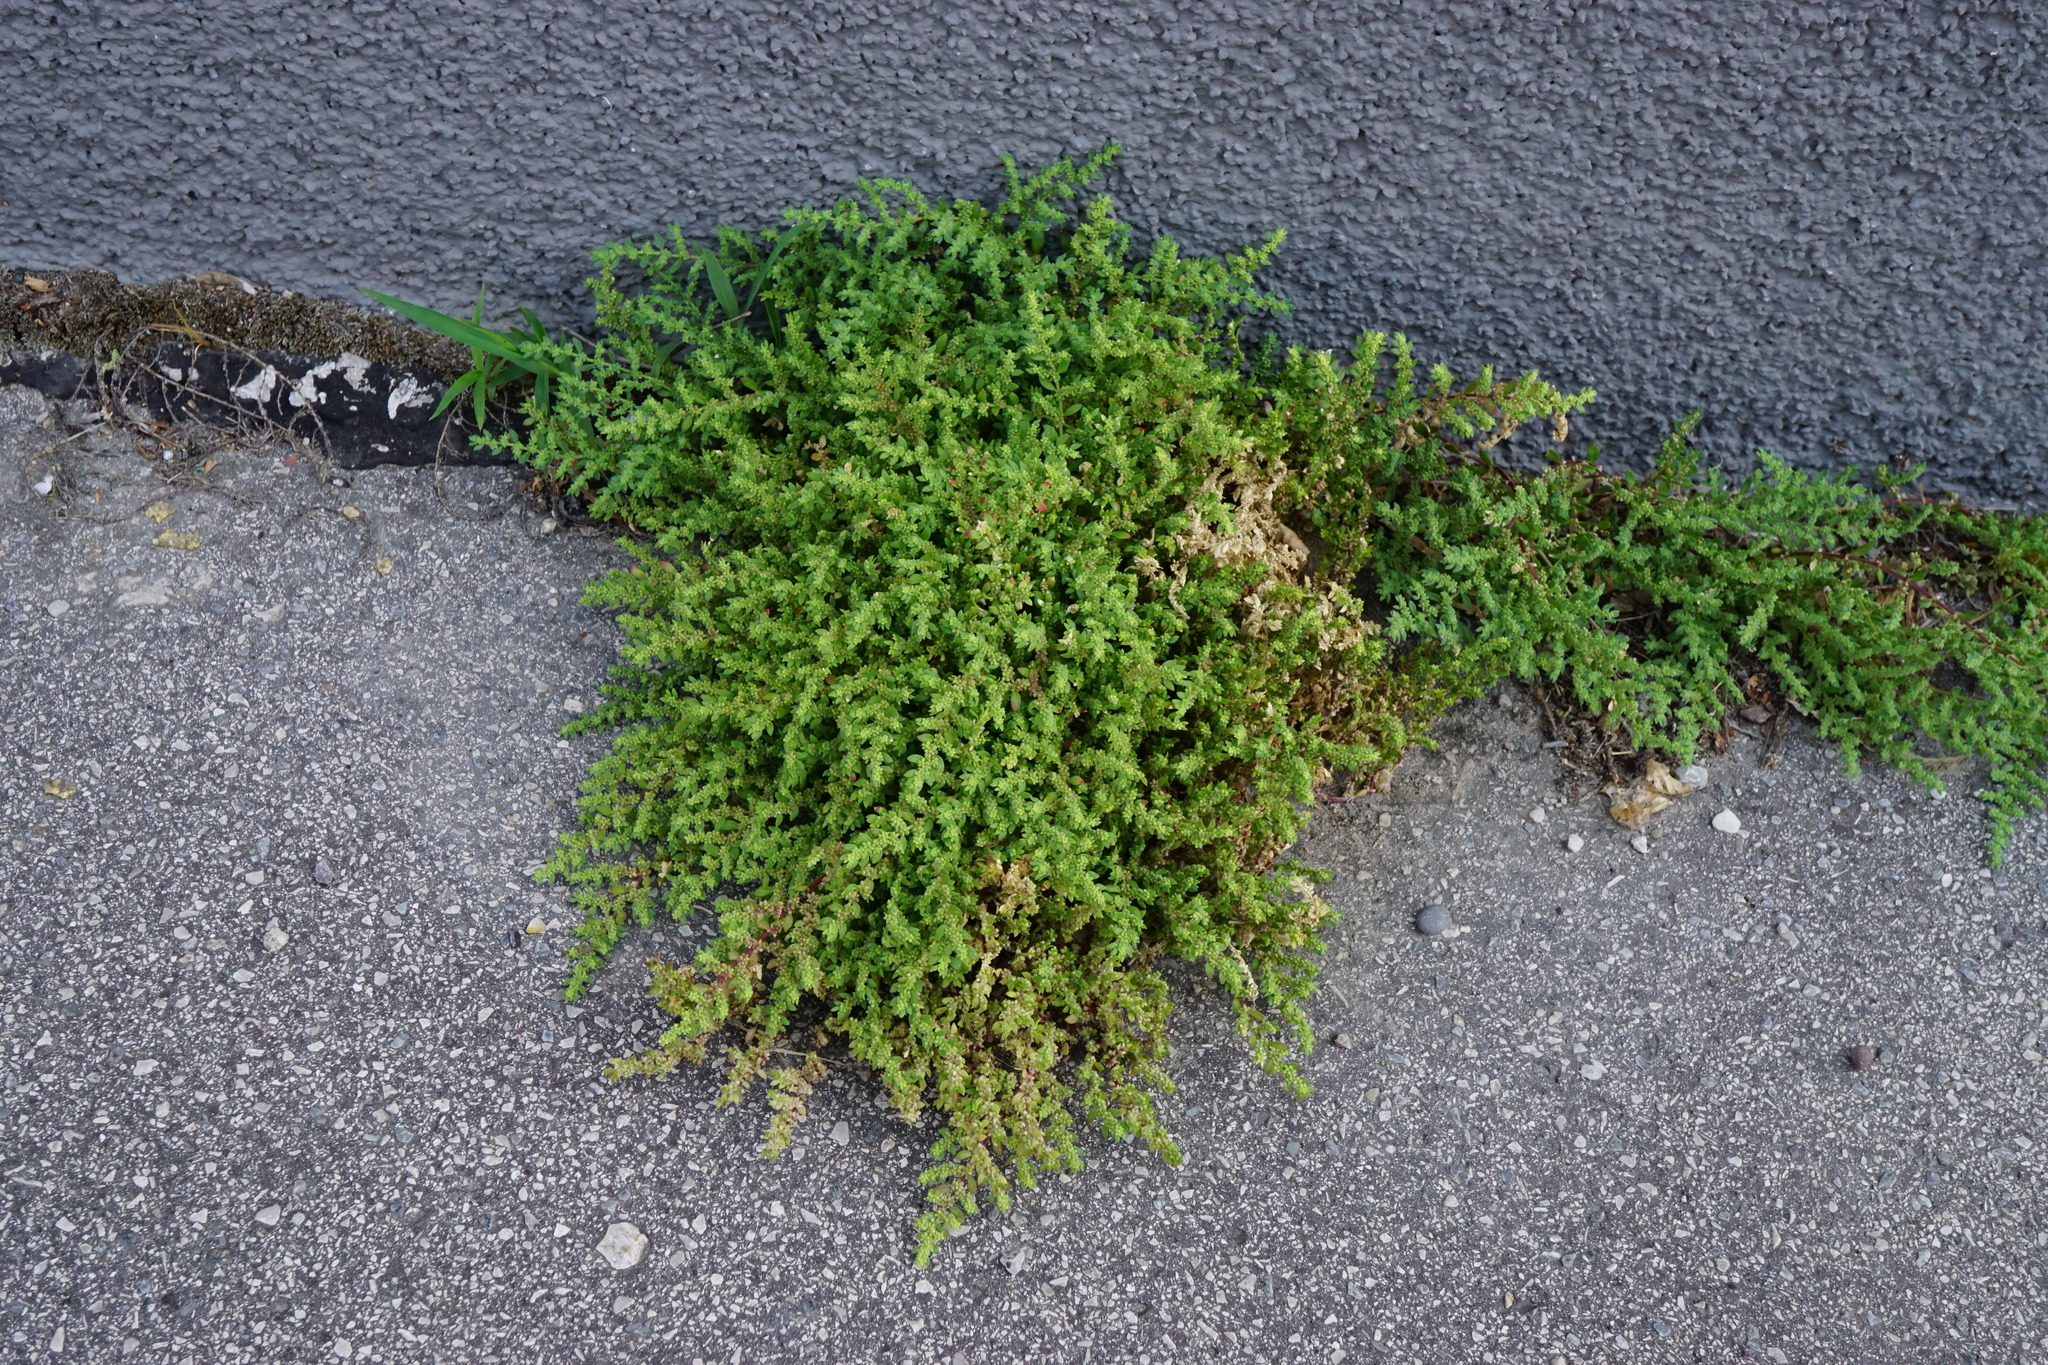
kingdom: Plantae
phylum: Tracheophyta
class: Magnoliopsida
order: Caryophyllales
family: Caryophyllaceae
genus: Herniaria
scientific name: Herniaria hirsuta
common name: Hairy rupturewort
